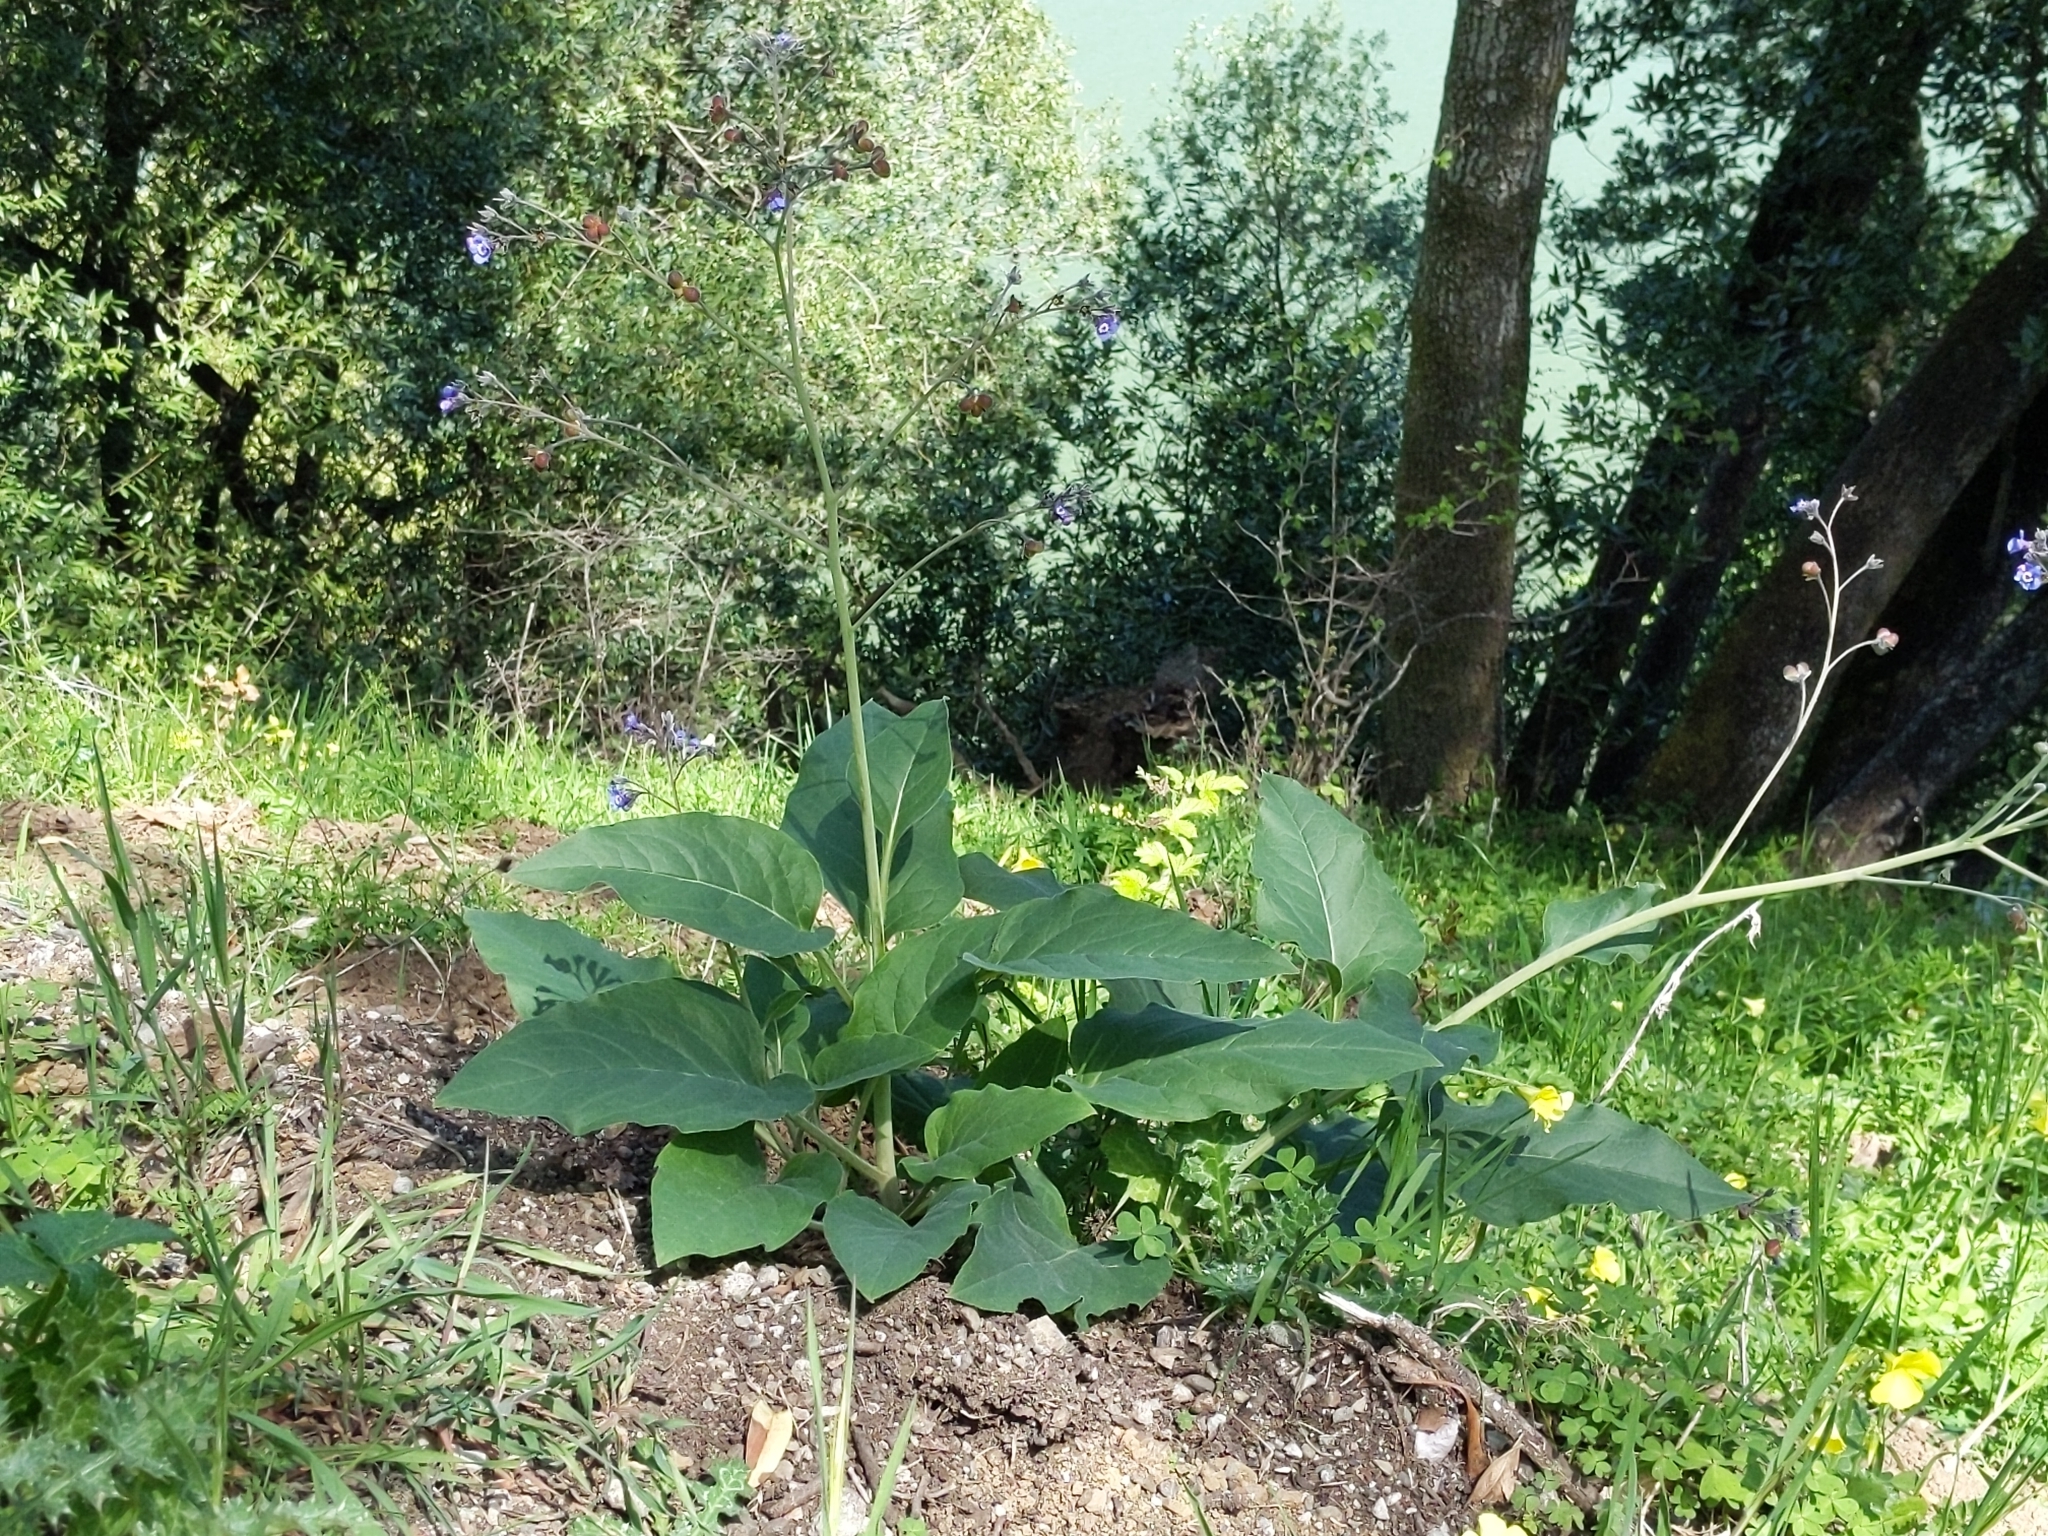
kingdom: Plantae
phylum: Tracheophyta
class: Magnoliopsida
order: Boraginales
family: Boraginaceae
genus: Adelinia
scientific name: Adelinia grande
